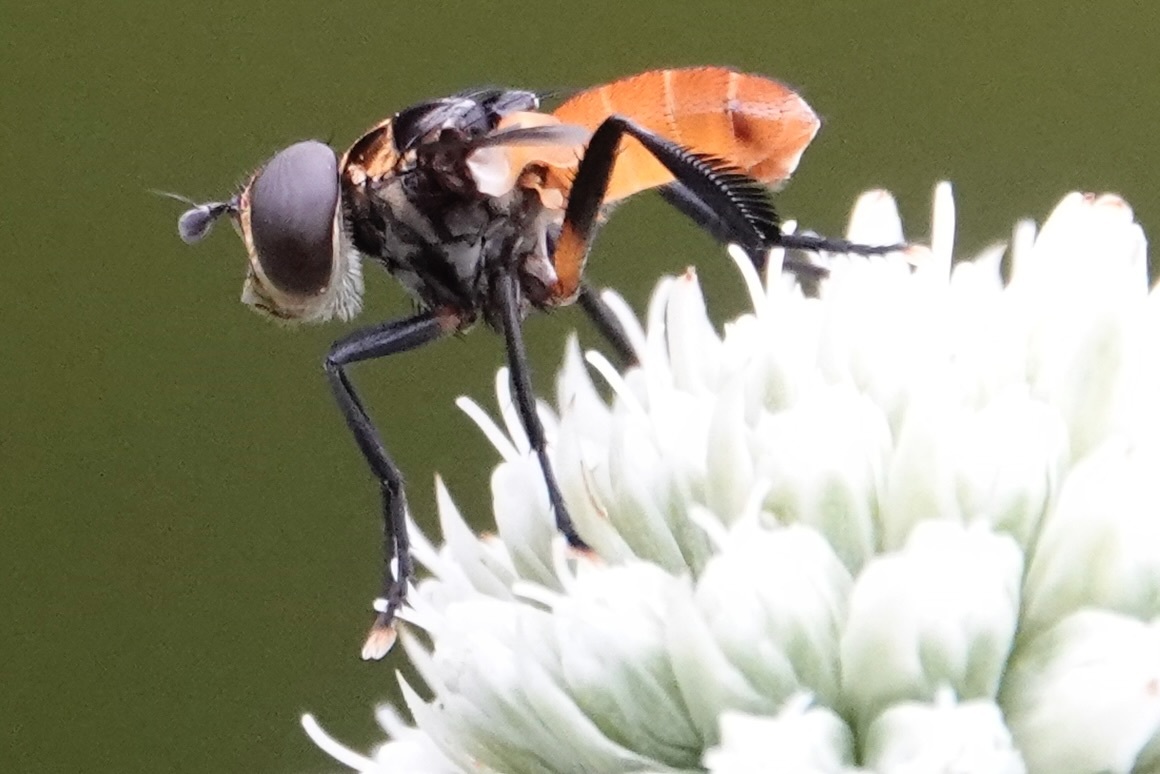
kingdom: Animalia
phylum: Arthropoda
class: Insecta
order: Diptera
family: Tachinidae
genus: Trichopoda
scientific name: Trichopoda pennipes
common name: Tachinid fly
